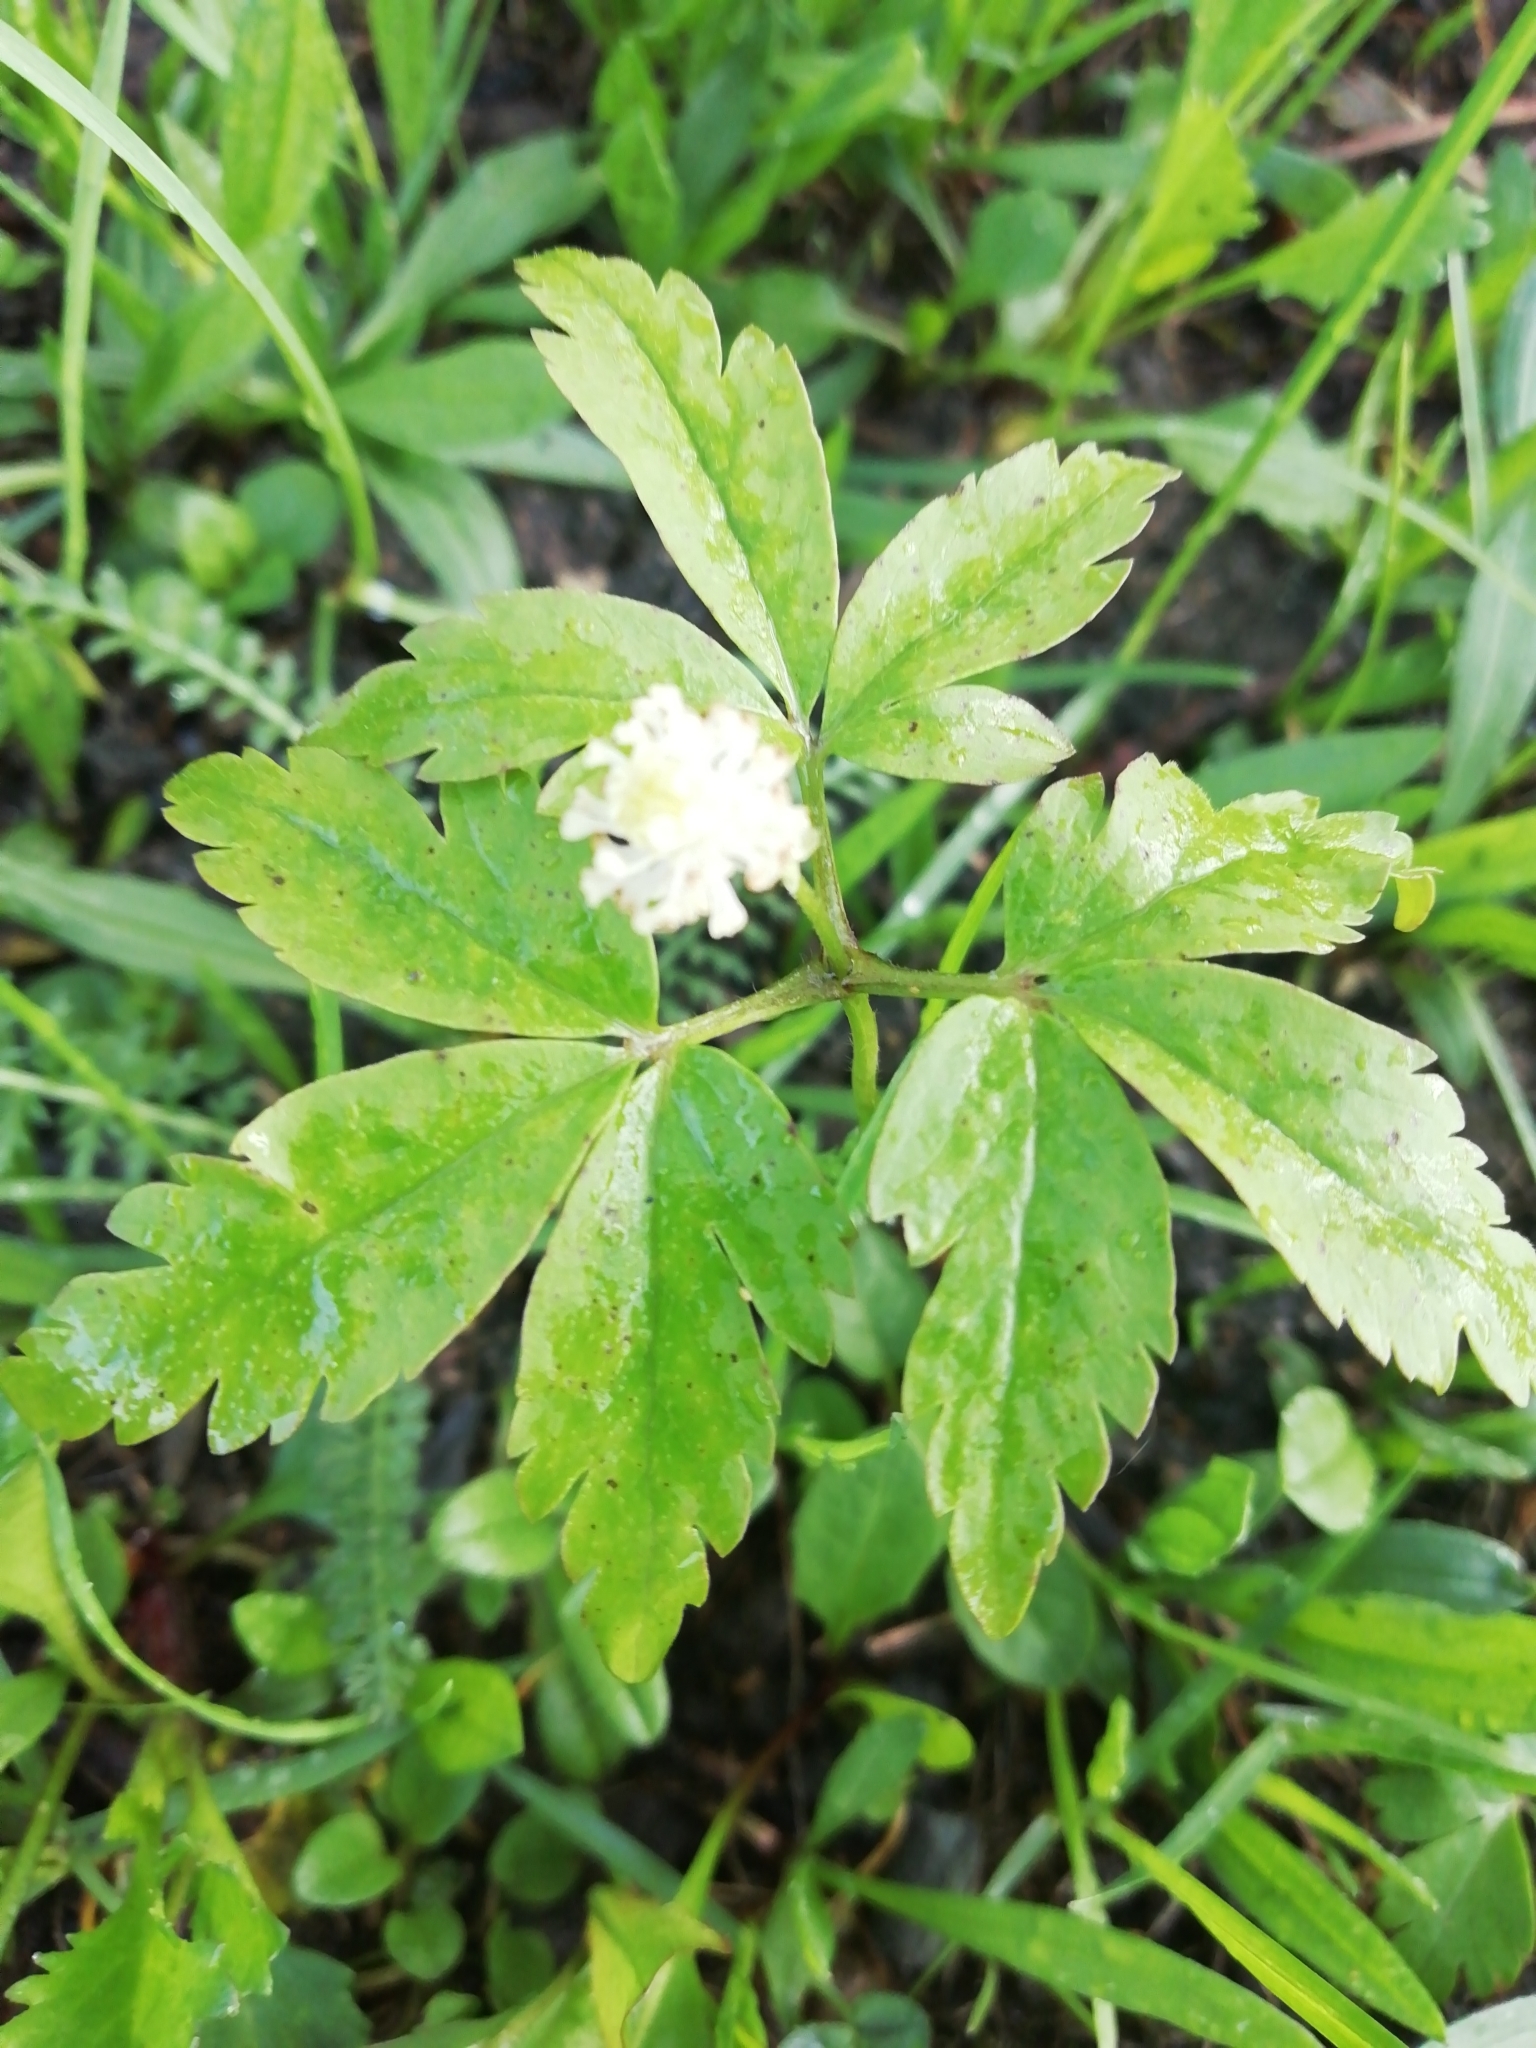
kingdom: Plantae
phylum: Tracheophyta
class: Magnoliopsida
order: Ranunculales
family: Ranunculaceae
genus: Anemone
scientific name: Anemone reflexa
